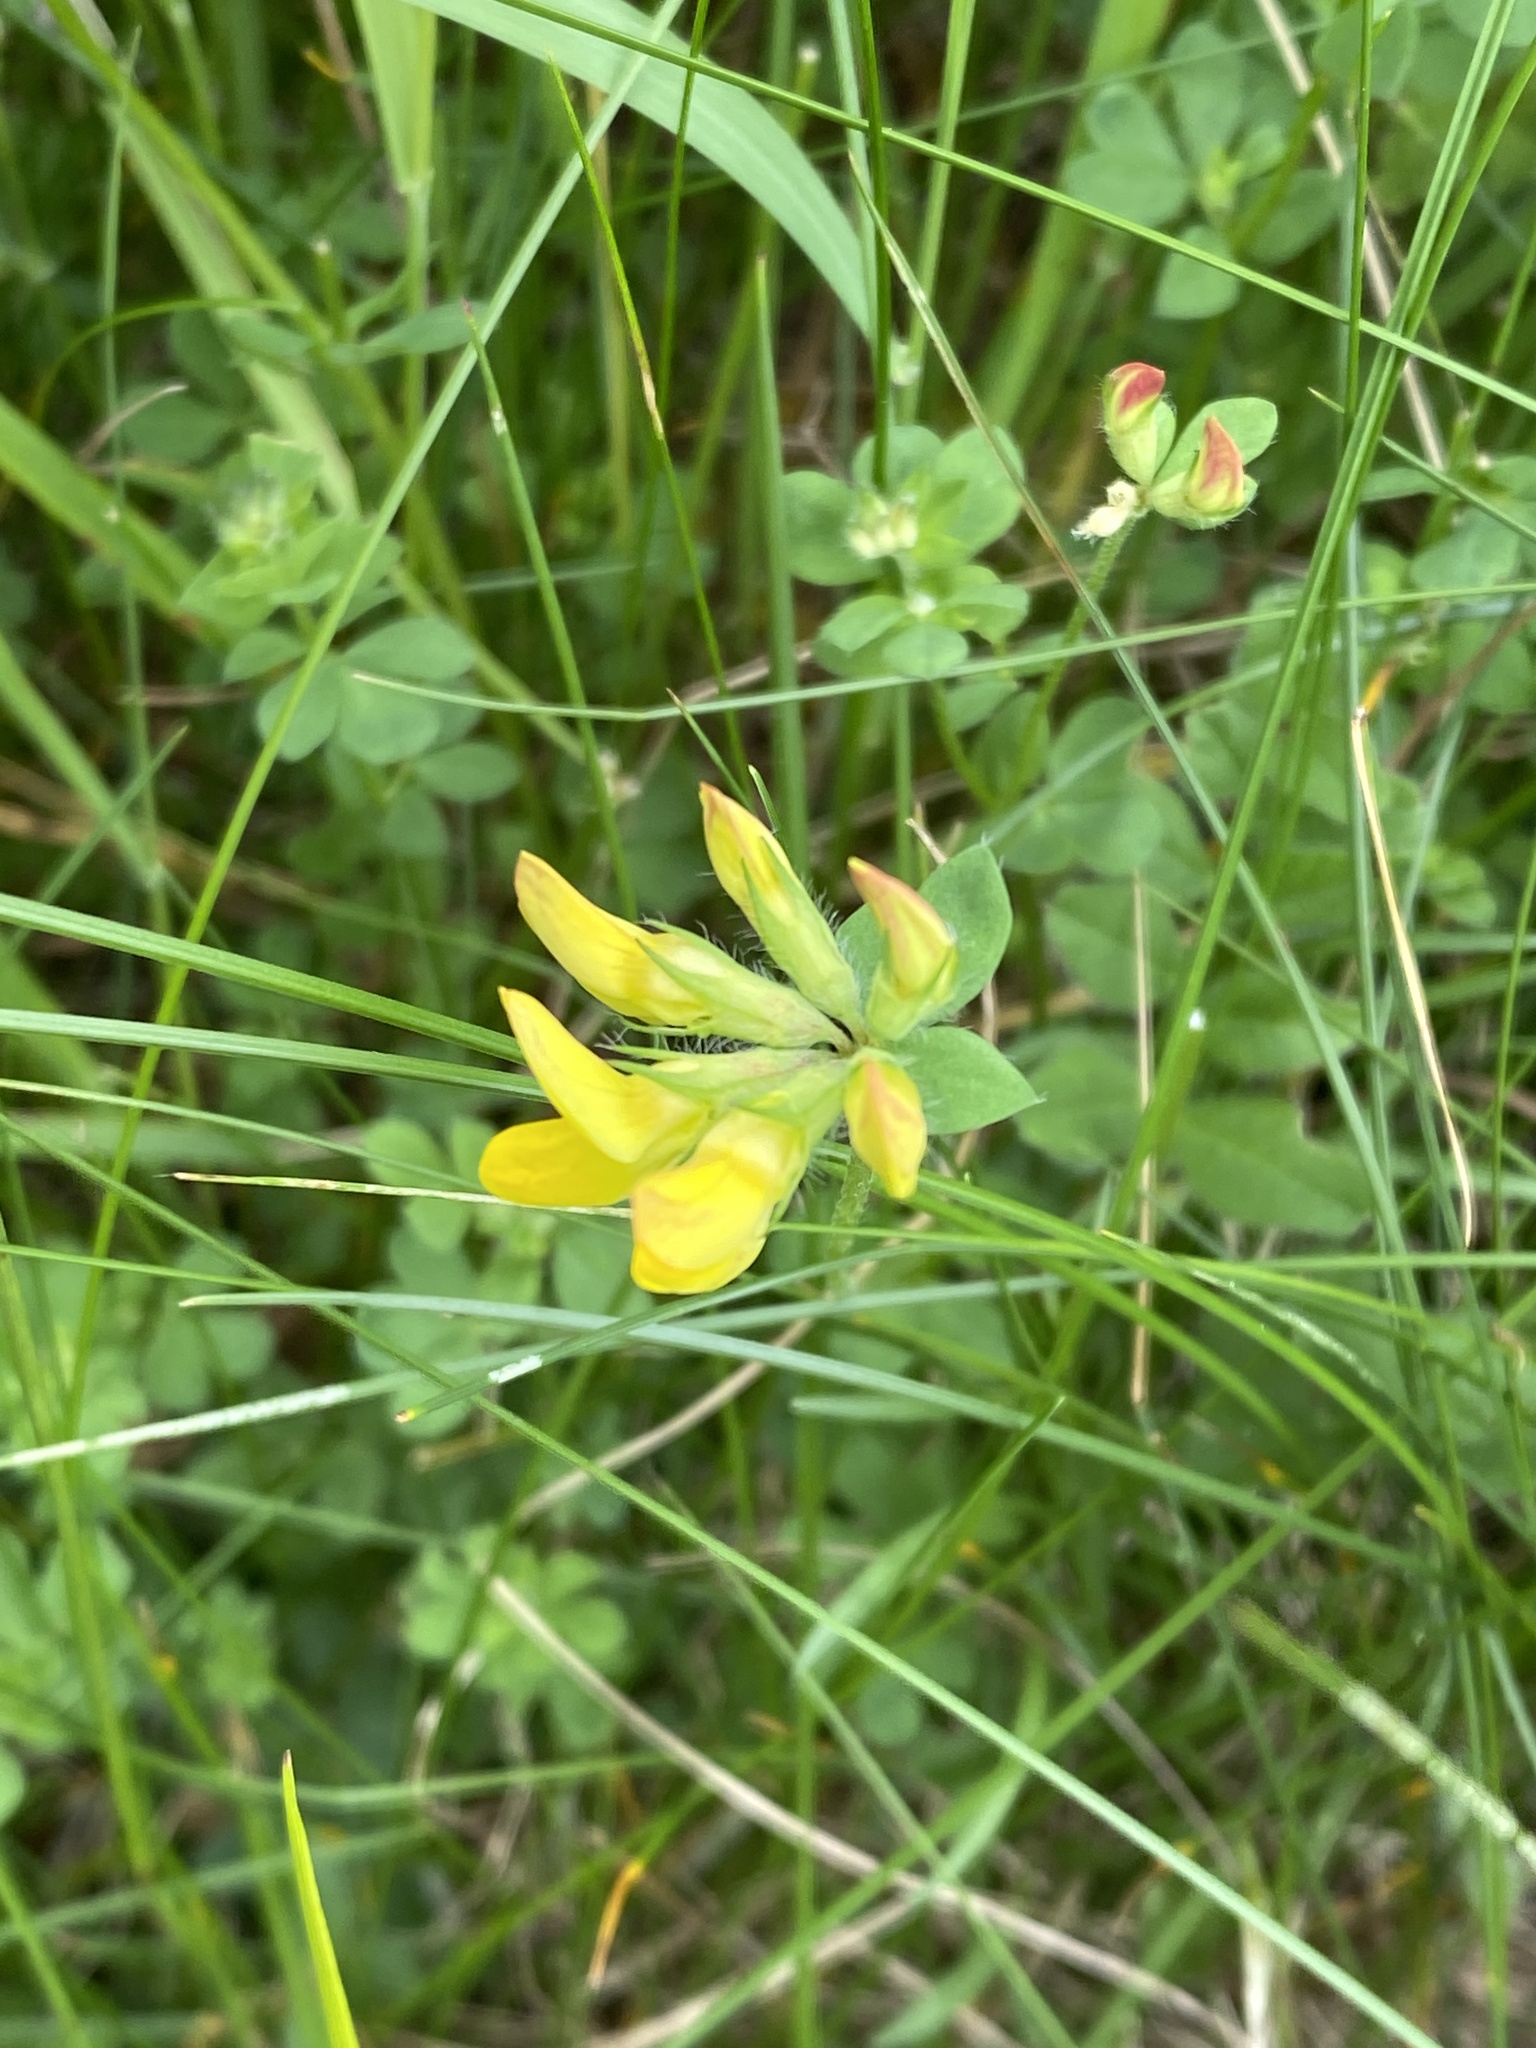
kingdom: Plantae
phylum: Tracheophyta
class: Magnoliopsida
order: Fabales
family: Fabaceae
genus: Lotus
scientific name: Lotus corniculatus
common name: Common bird's-foot-trefoil
